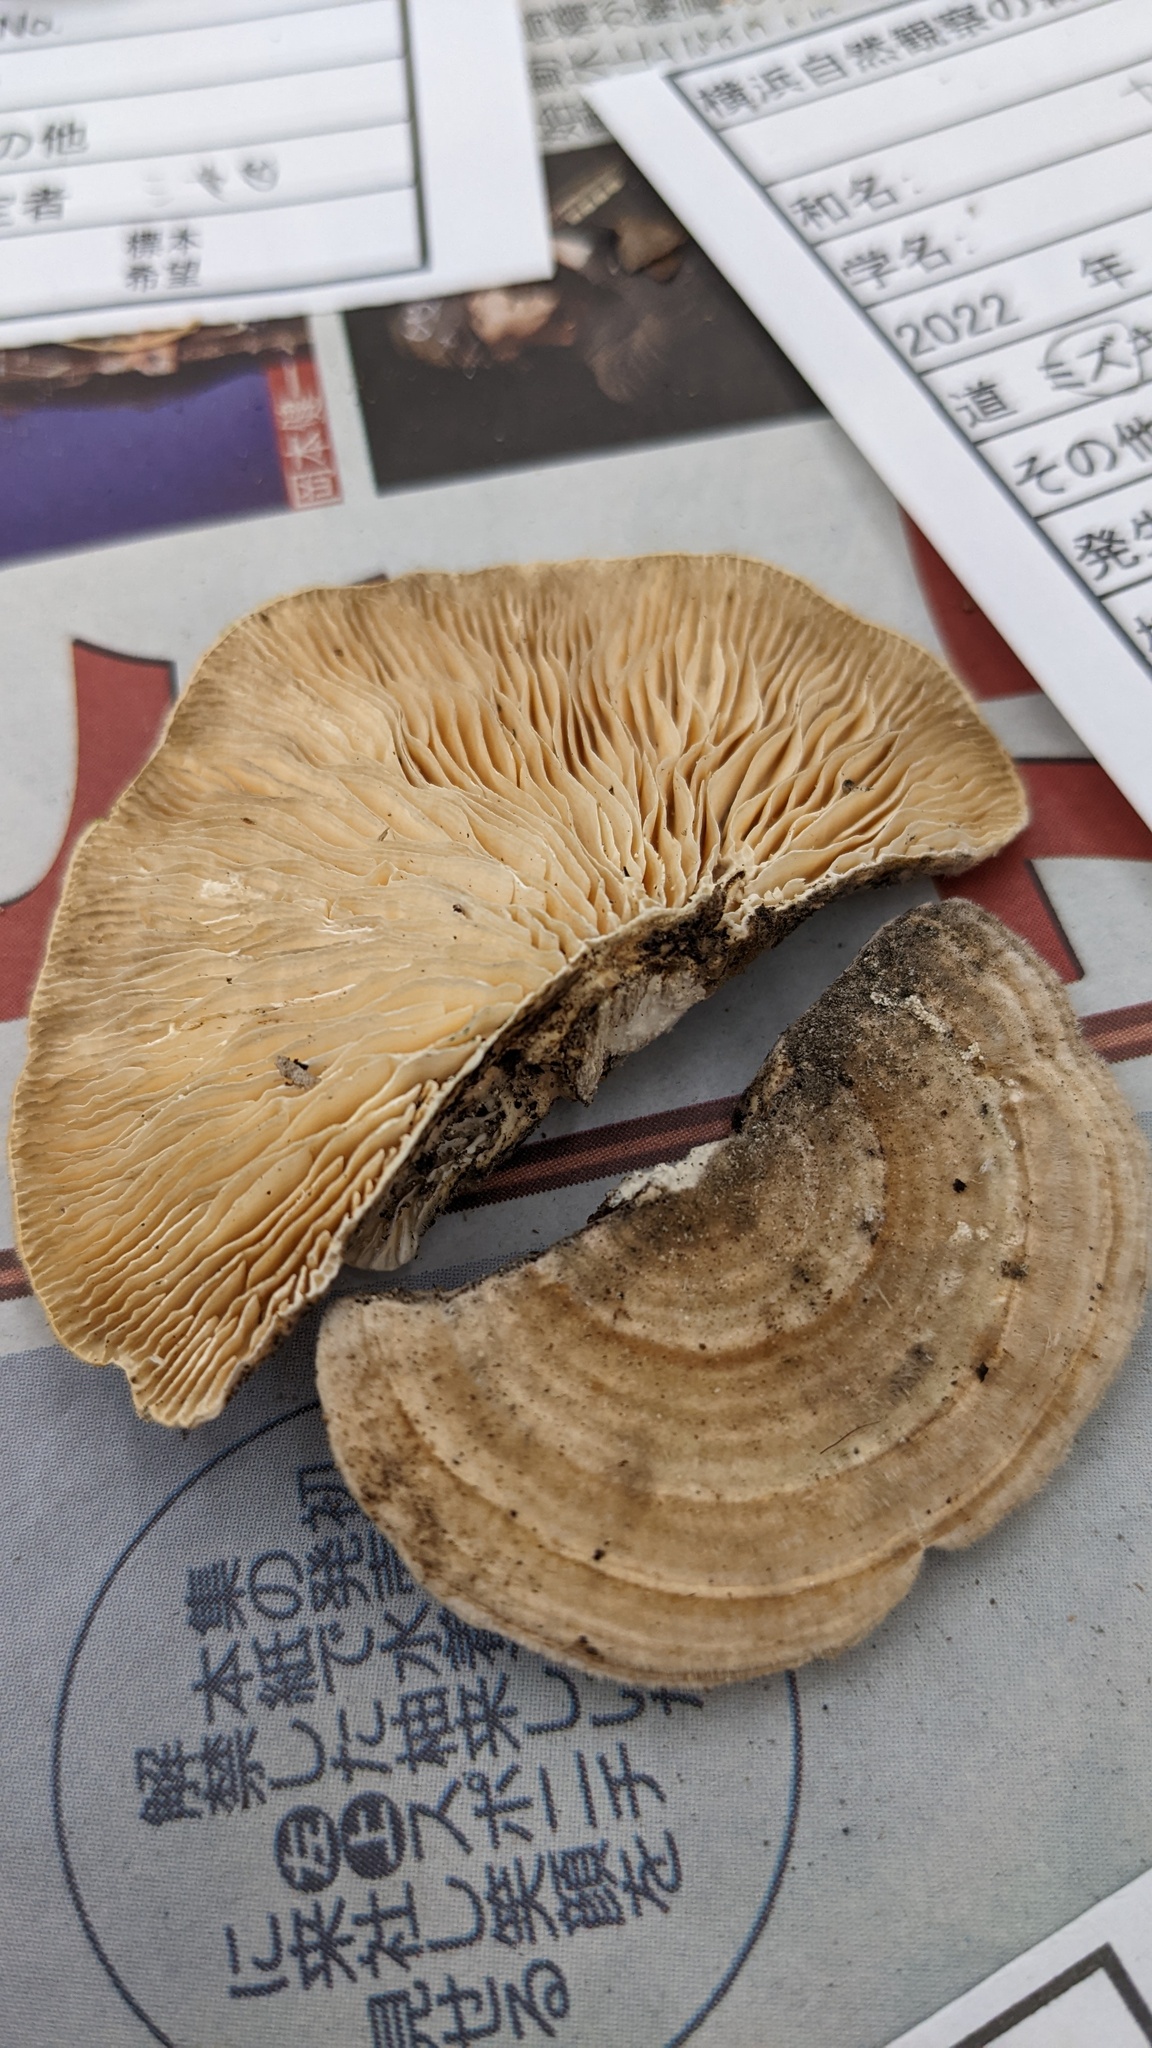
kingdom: Fungi
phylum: Basidiomycota
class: Agaricomycetes
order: Polyporales
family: Polyporaceae
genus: Lenzites
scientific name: Lenzites betulinus
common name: Birch mazegill
